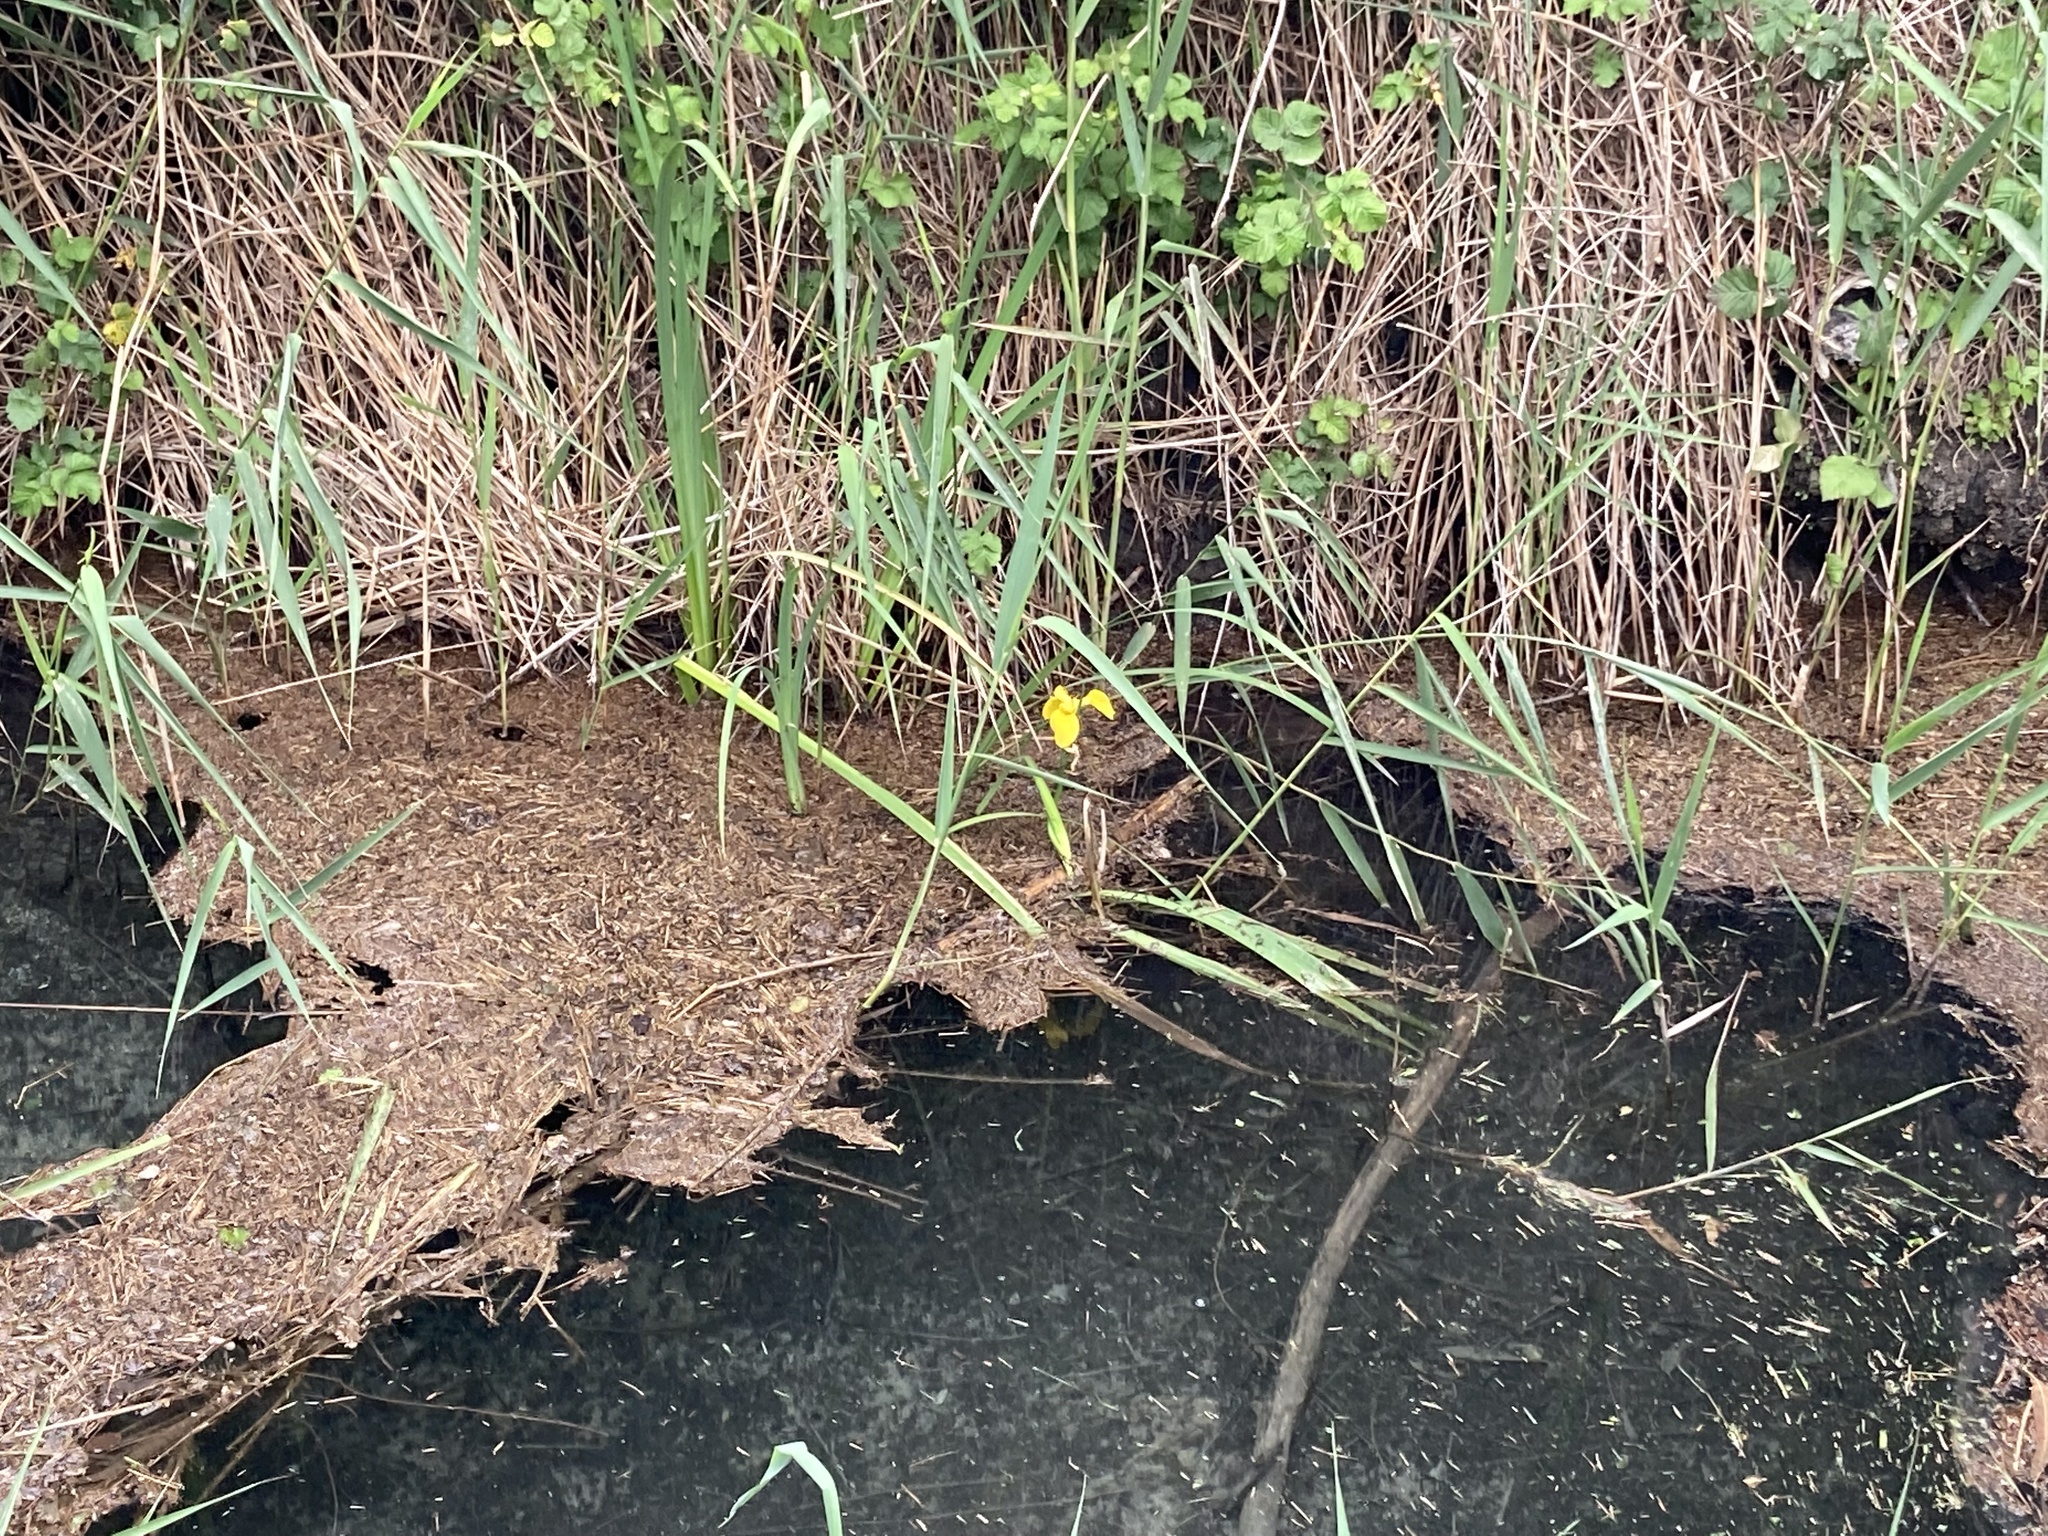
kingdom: Plantae
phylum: Tracheophyta
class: Liliopsida
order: Asparagales
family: Iridaceae
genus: Iris
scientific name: Iris pseudacorus
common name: Yellow flag
